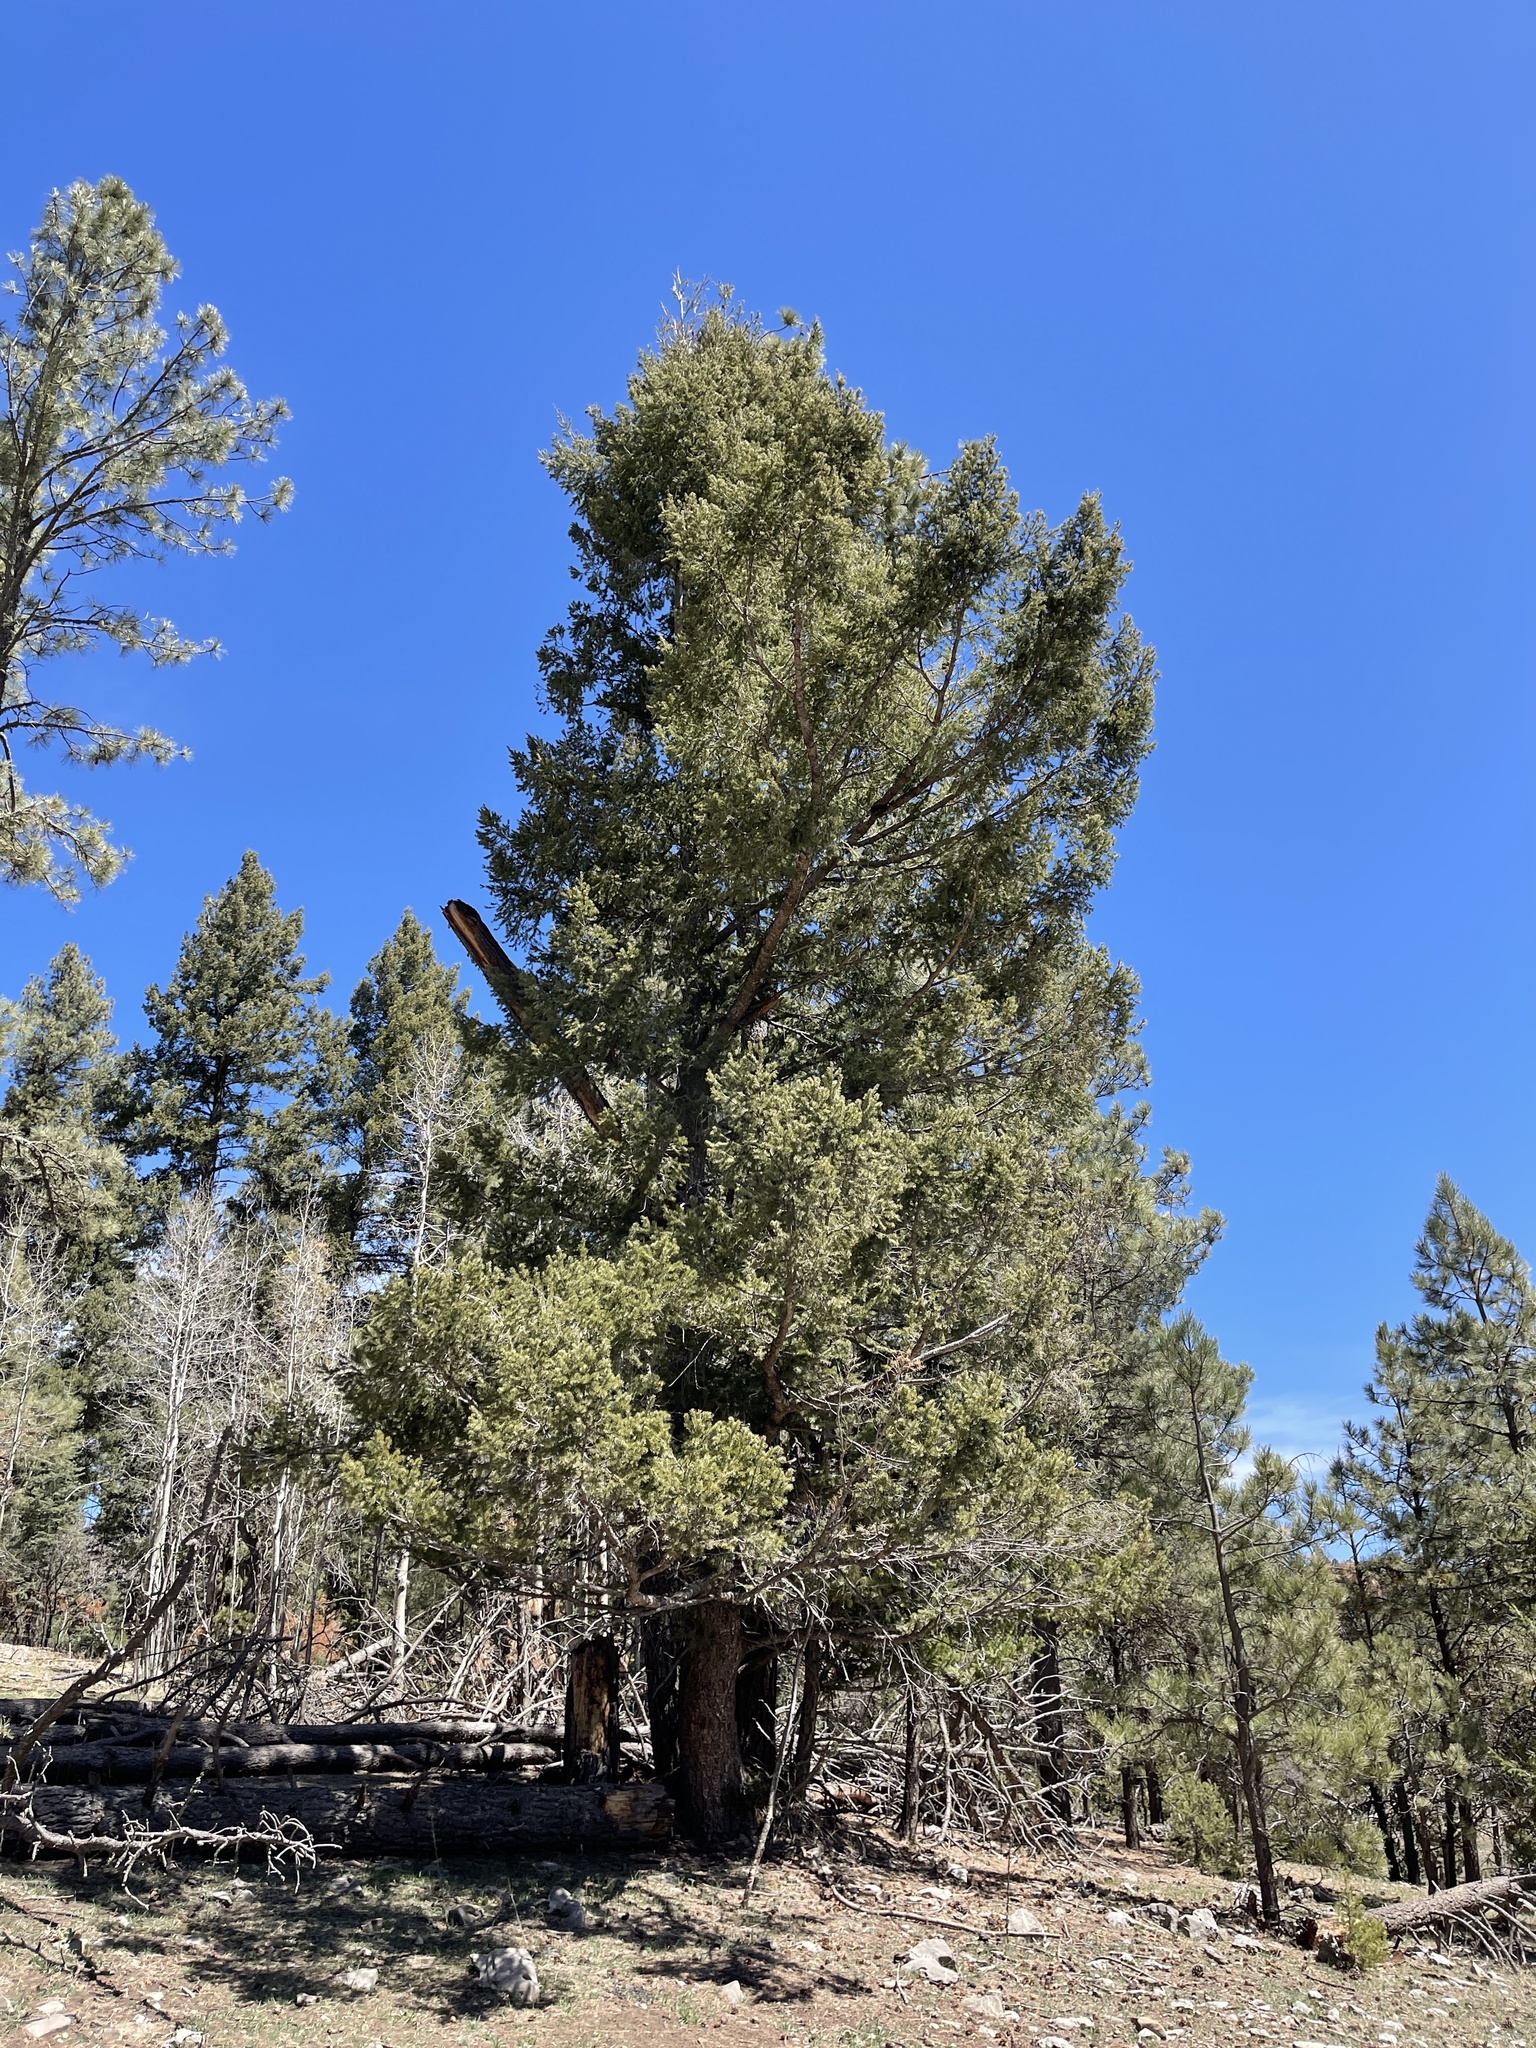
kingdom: Plantae
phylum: Tracheophyta
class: Pinopsida
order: Pinales
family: Pinaceae
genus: Pseudotsuga
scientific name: Pseudotsuga menziesii
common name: Douglas fir
